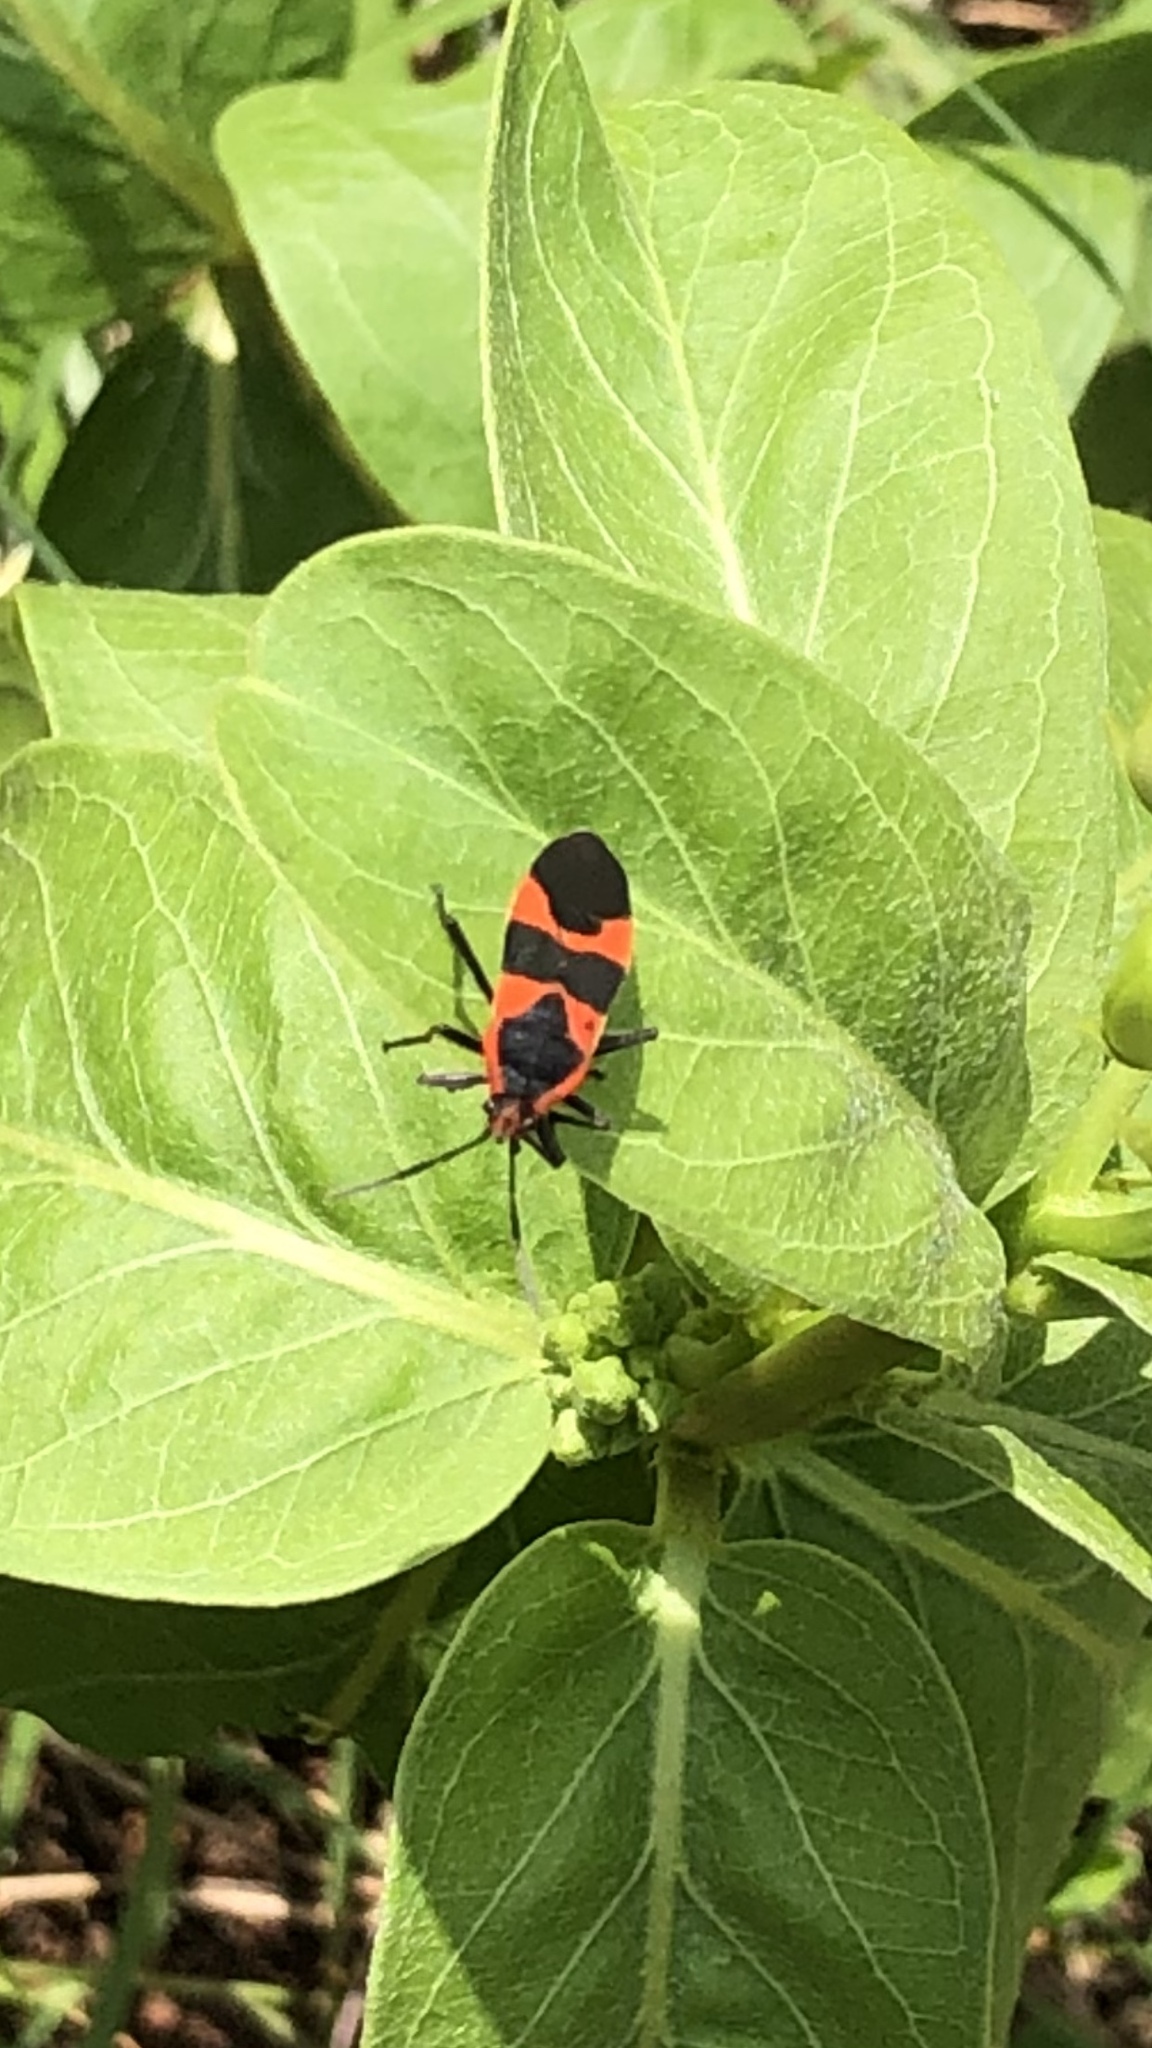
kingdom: Animalia
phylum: Arthropoda
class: Insecta
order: Hemiptera
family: Lygaeidae
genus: Oncopeltus
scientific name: Oncopeltus fasciatus
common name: Large milkweed bug
